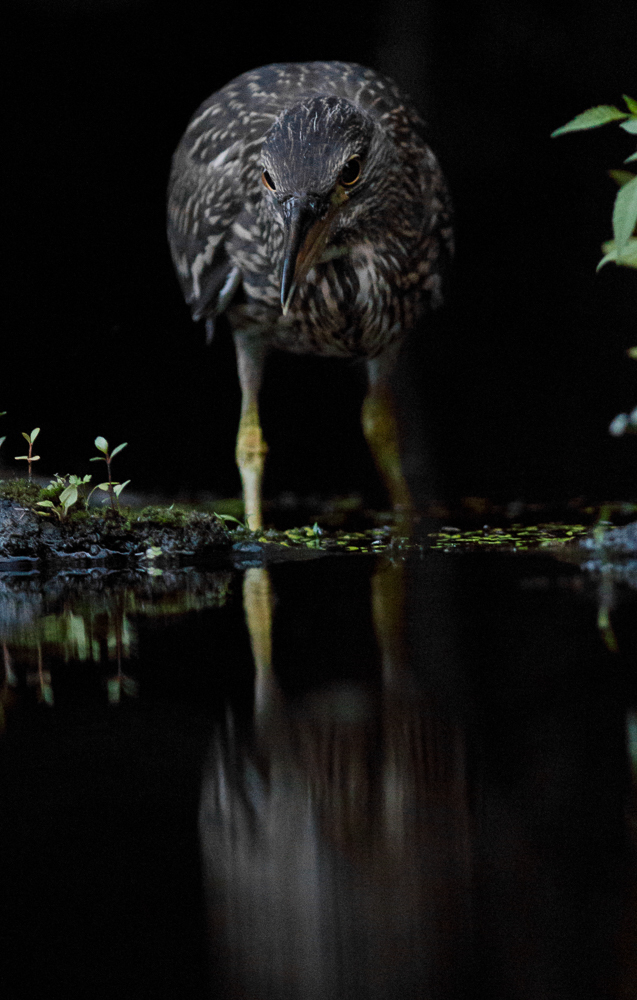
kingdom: Animalia
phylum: Chordata
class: Aves
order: Pelecaniformes
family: Ardeidae
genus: Nycticorax
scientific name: Nycticorax nycticorax
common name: Black-crowned night heron
